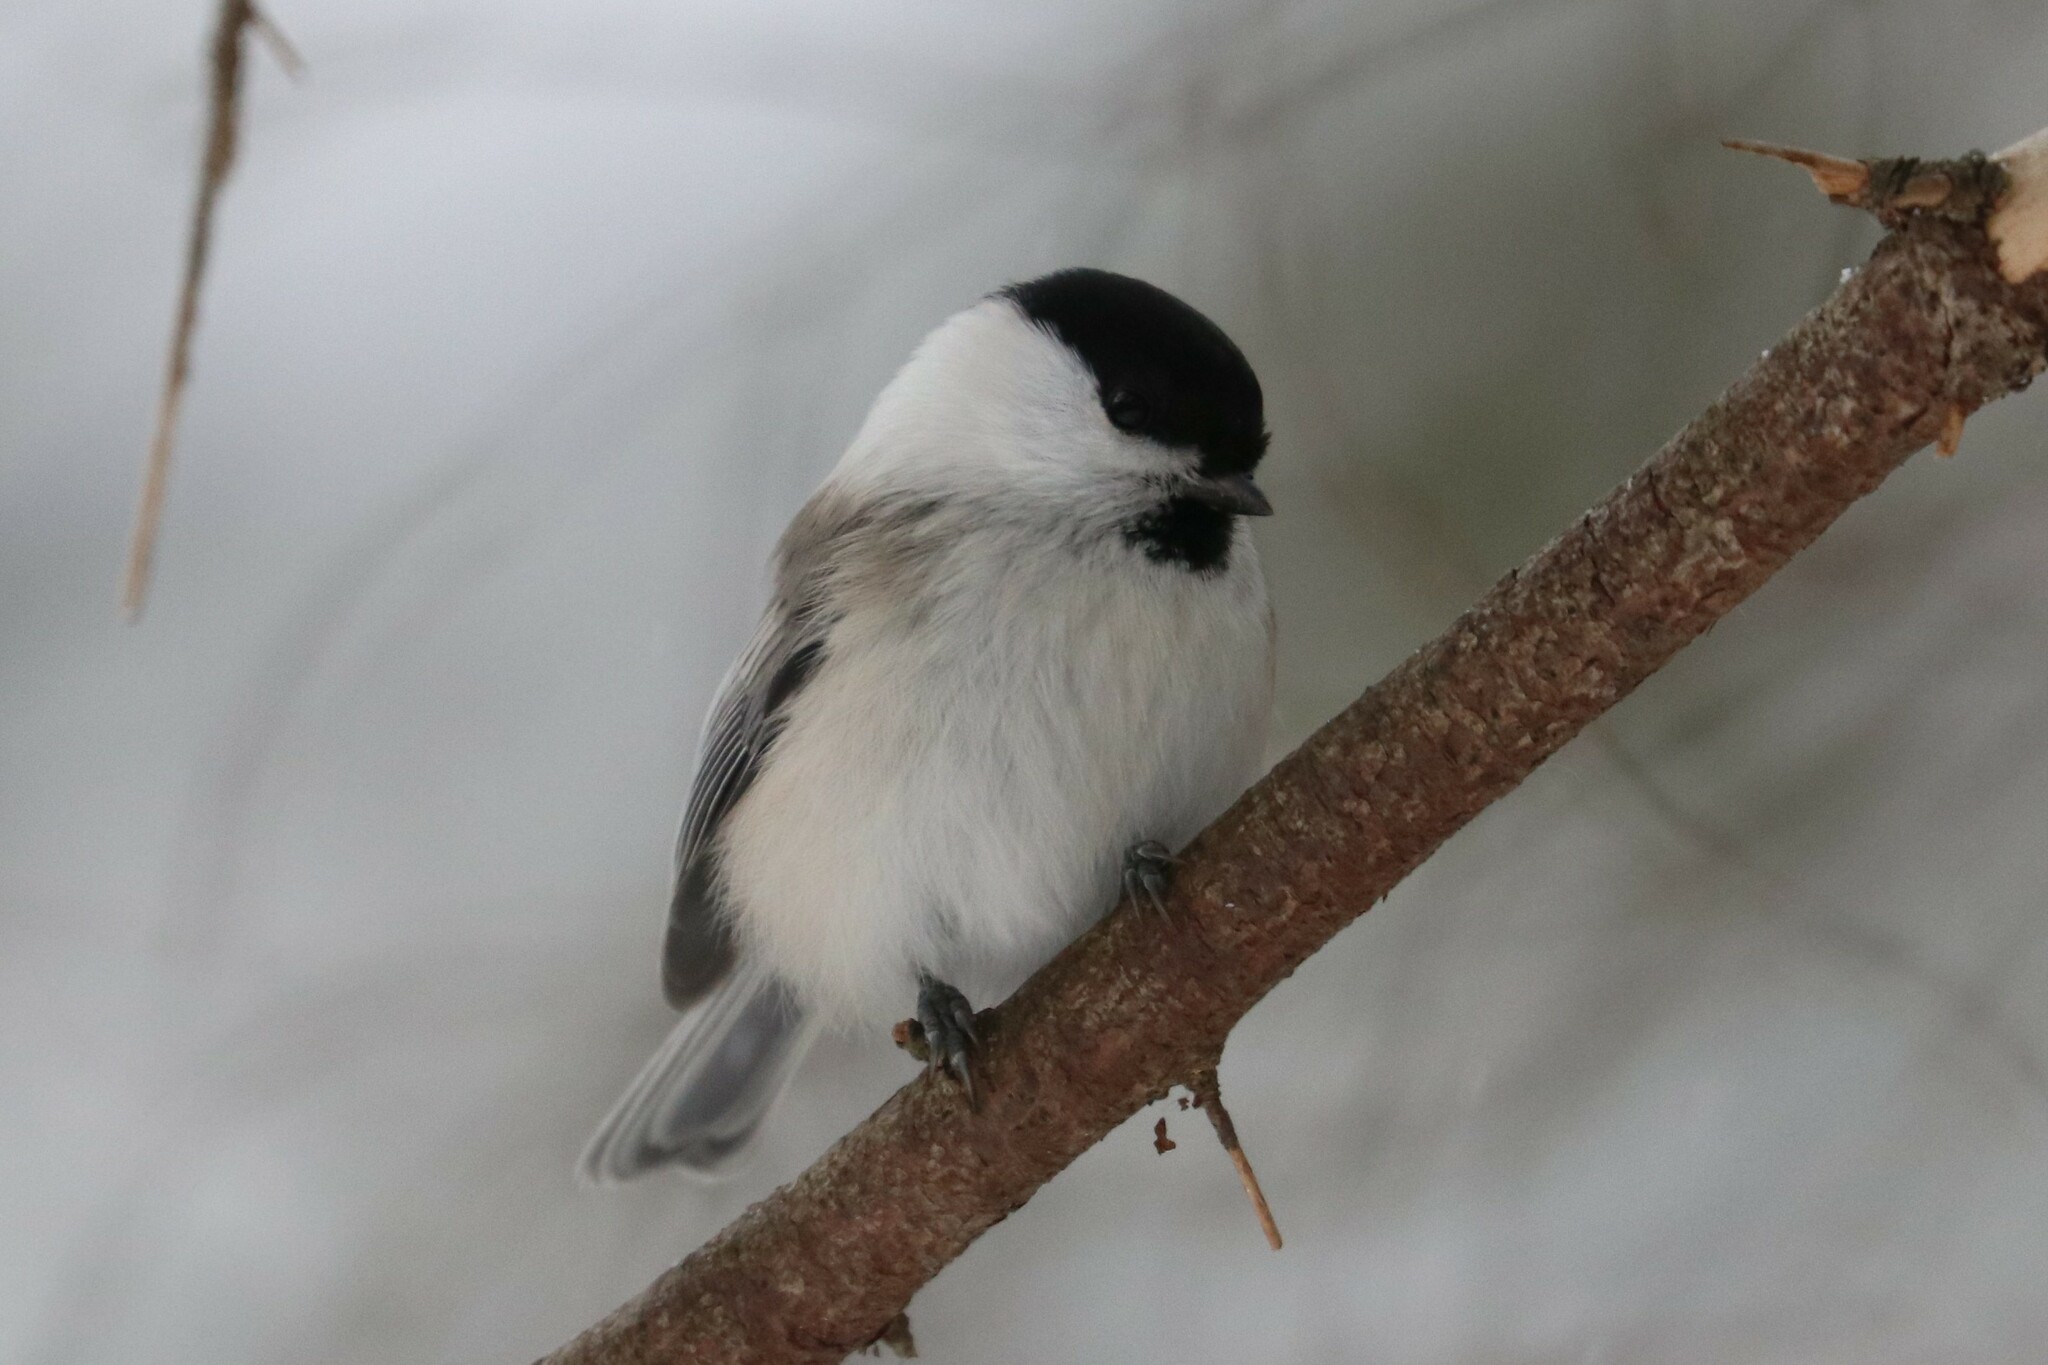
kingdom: Animalia
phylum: Chordata
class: Aves
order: Passeriformes
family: Paridae
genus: Poecile
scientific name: Poecile montanus
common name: Willow tit
